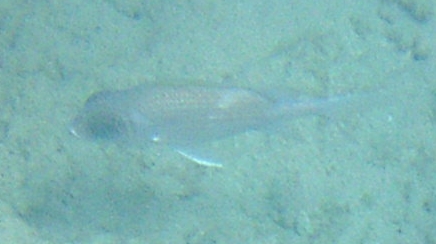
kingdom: Animalia
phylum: Chordata
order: Beryciformes
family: Holocentridae
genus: Holocentrus
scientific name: Holocentrus adscensionis
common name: Squirrelfish
